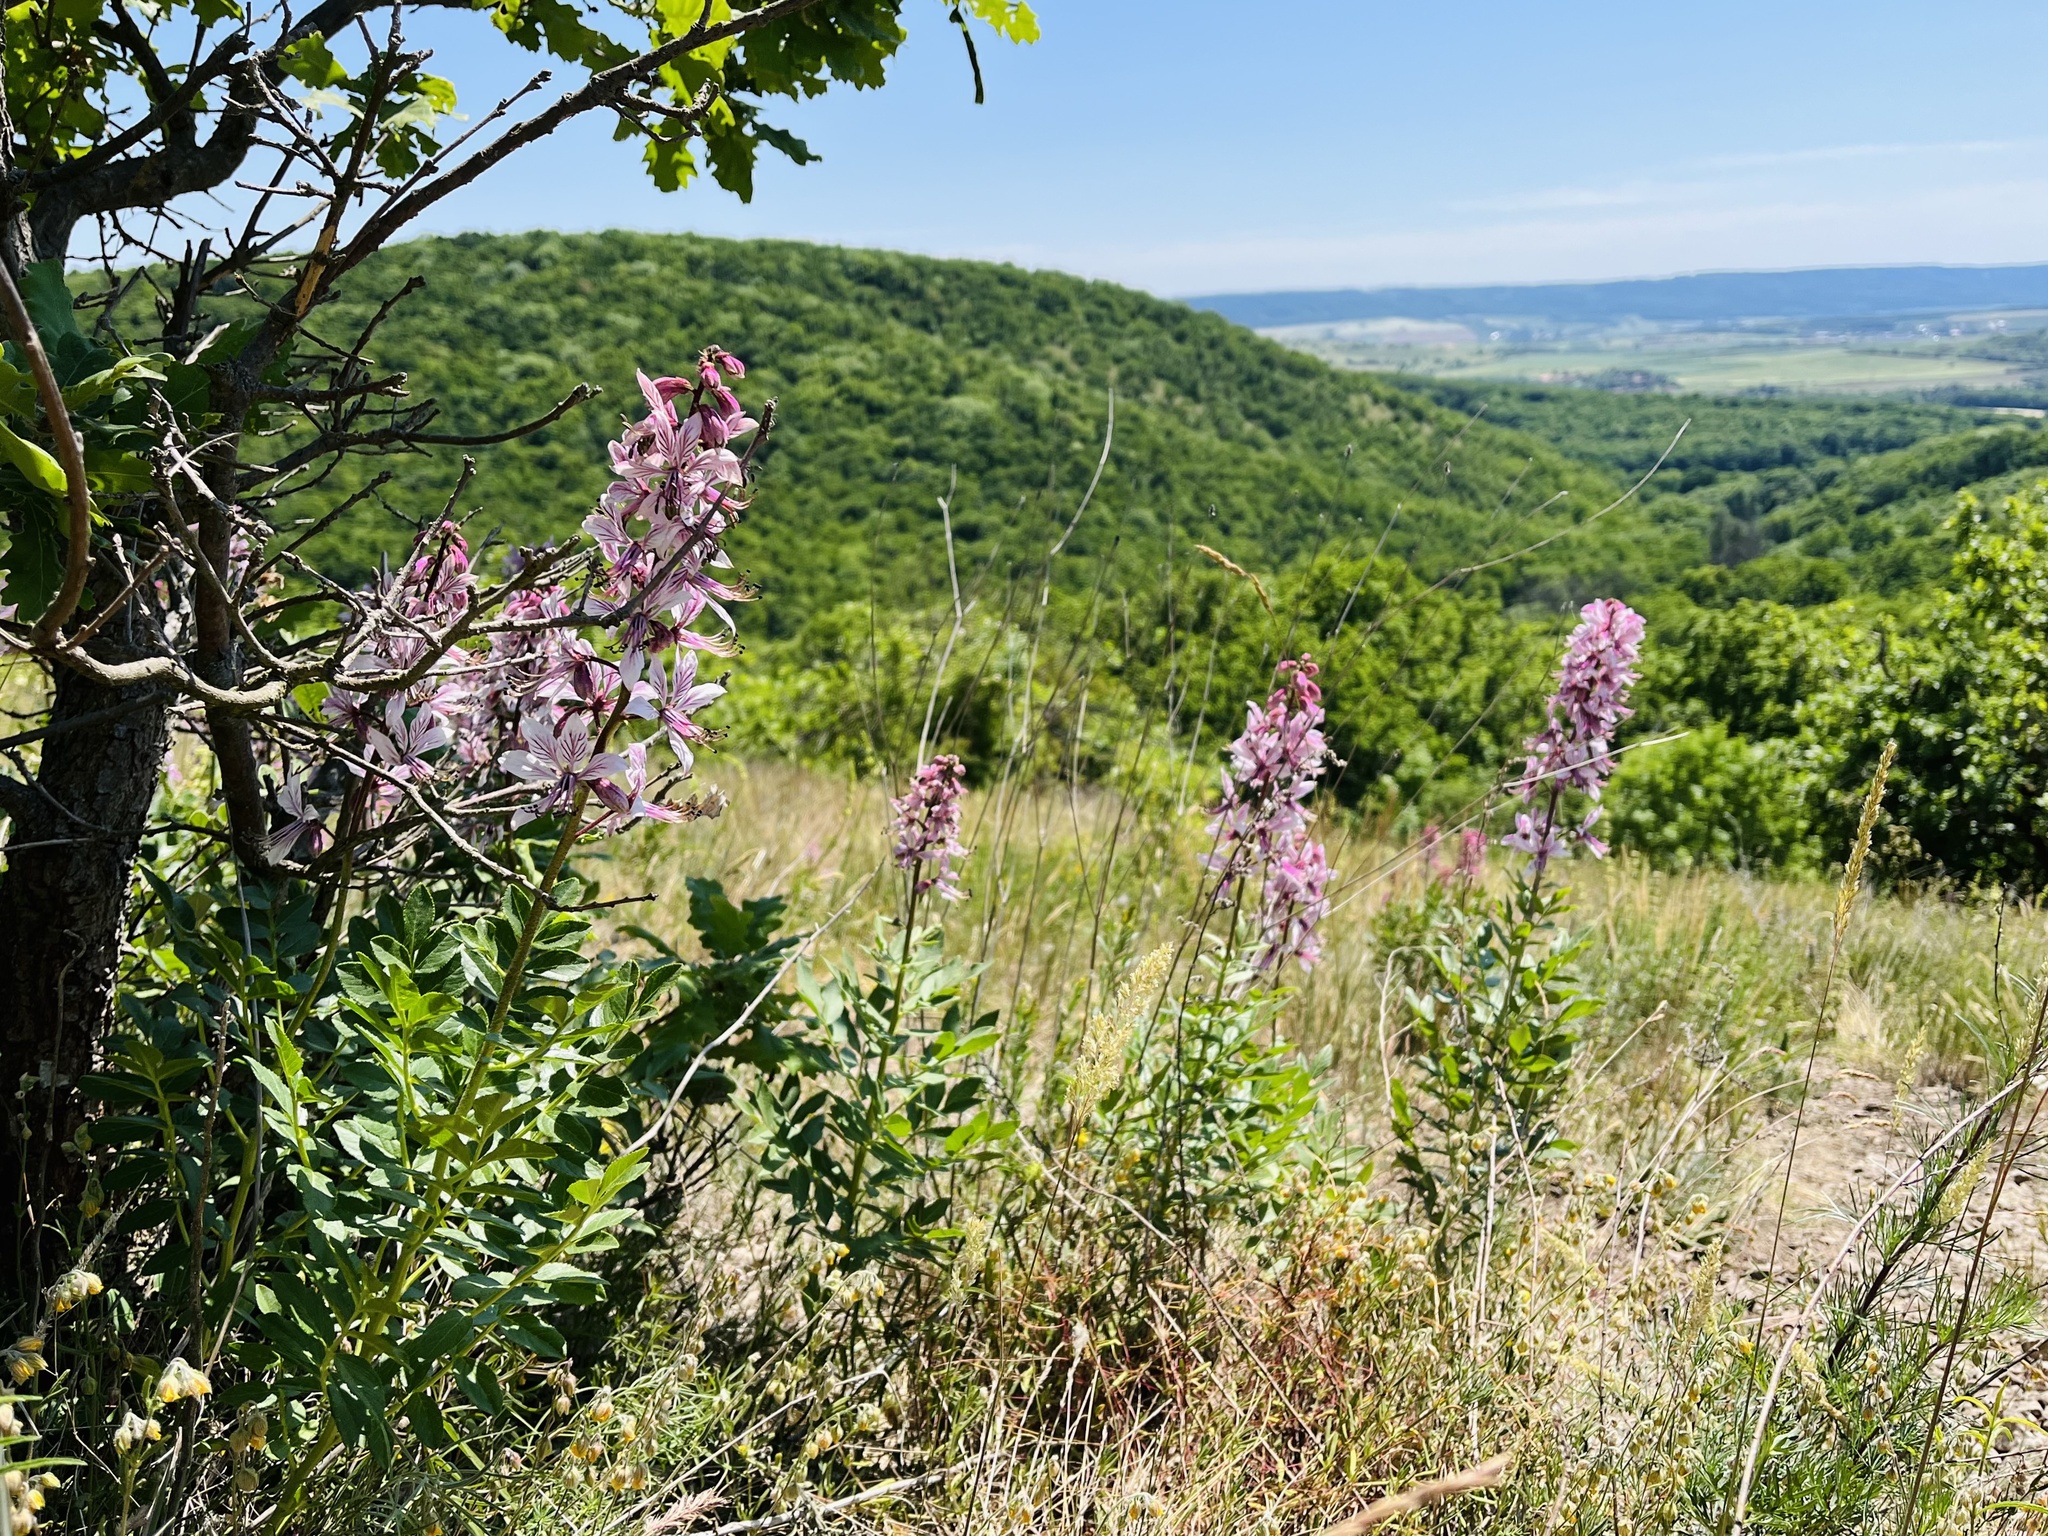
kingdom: Plantae
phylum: Tracheophyta
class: Magnoliopsida
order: Sapindales
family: Rutaceae
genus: Dictamnus
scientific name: Dictamnus albus
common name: Gasplant
